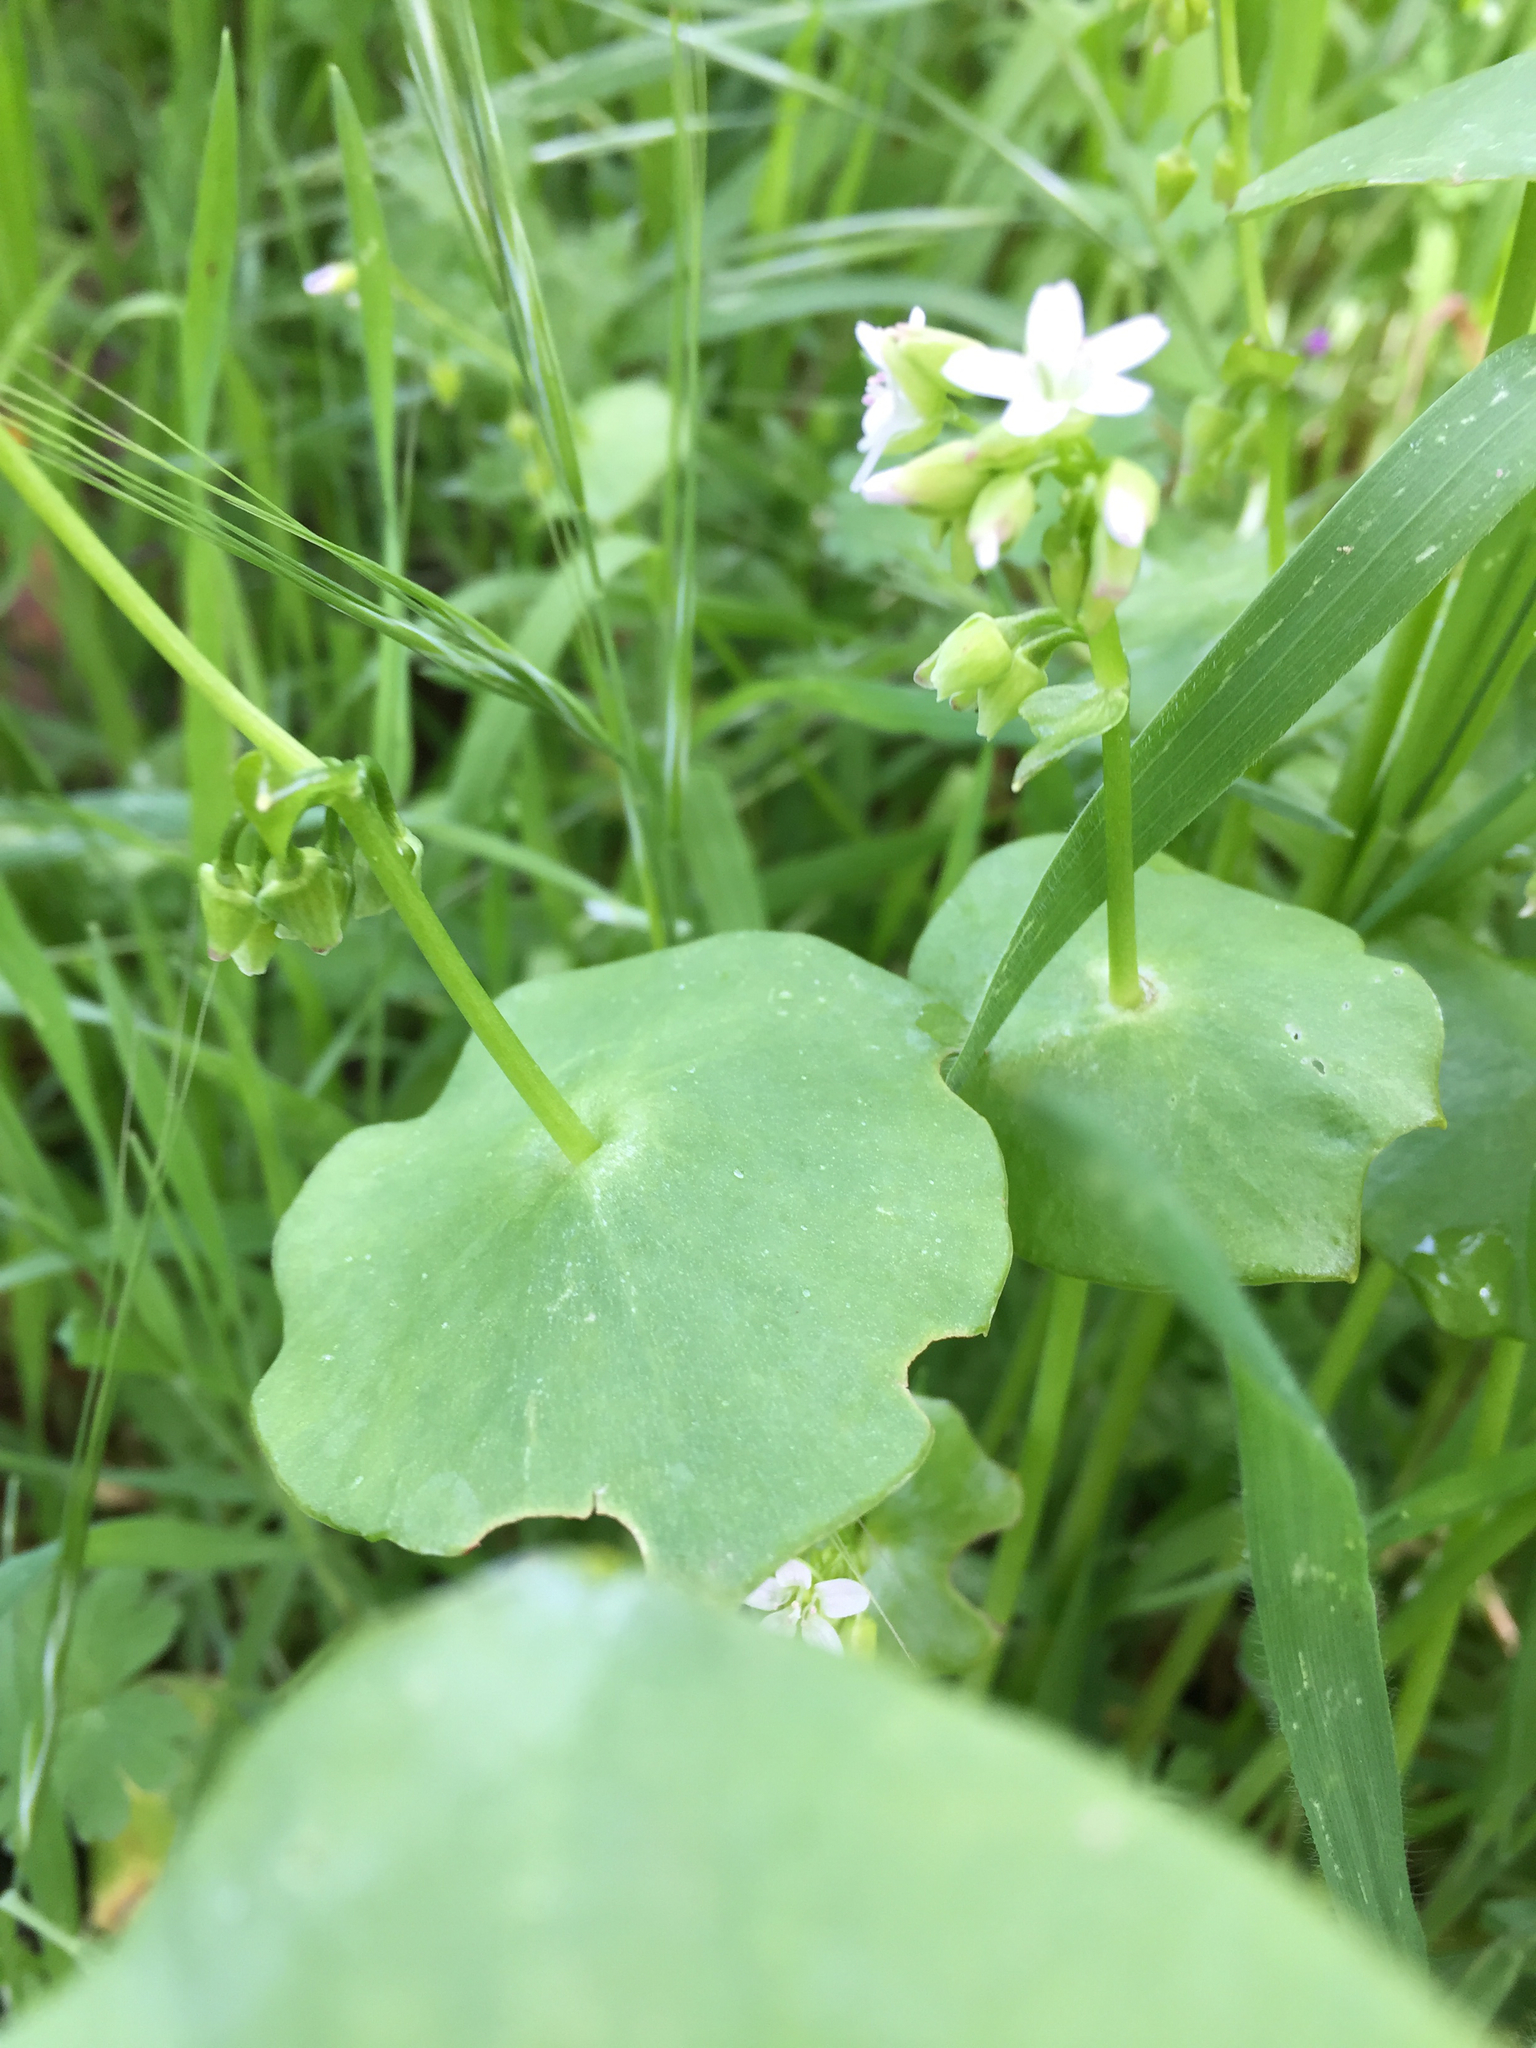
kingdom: Plantae
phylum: Tracheophyta
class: Magnoliopsida
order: Caryophyllales
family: Montiaceae
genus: Claytonia
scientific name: Claytonia perfoliata
